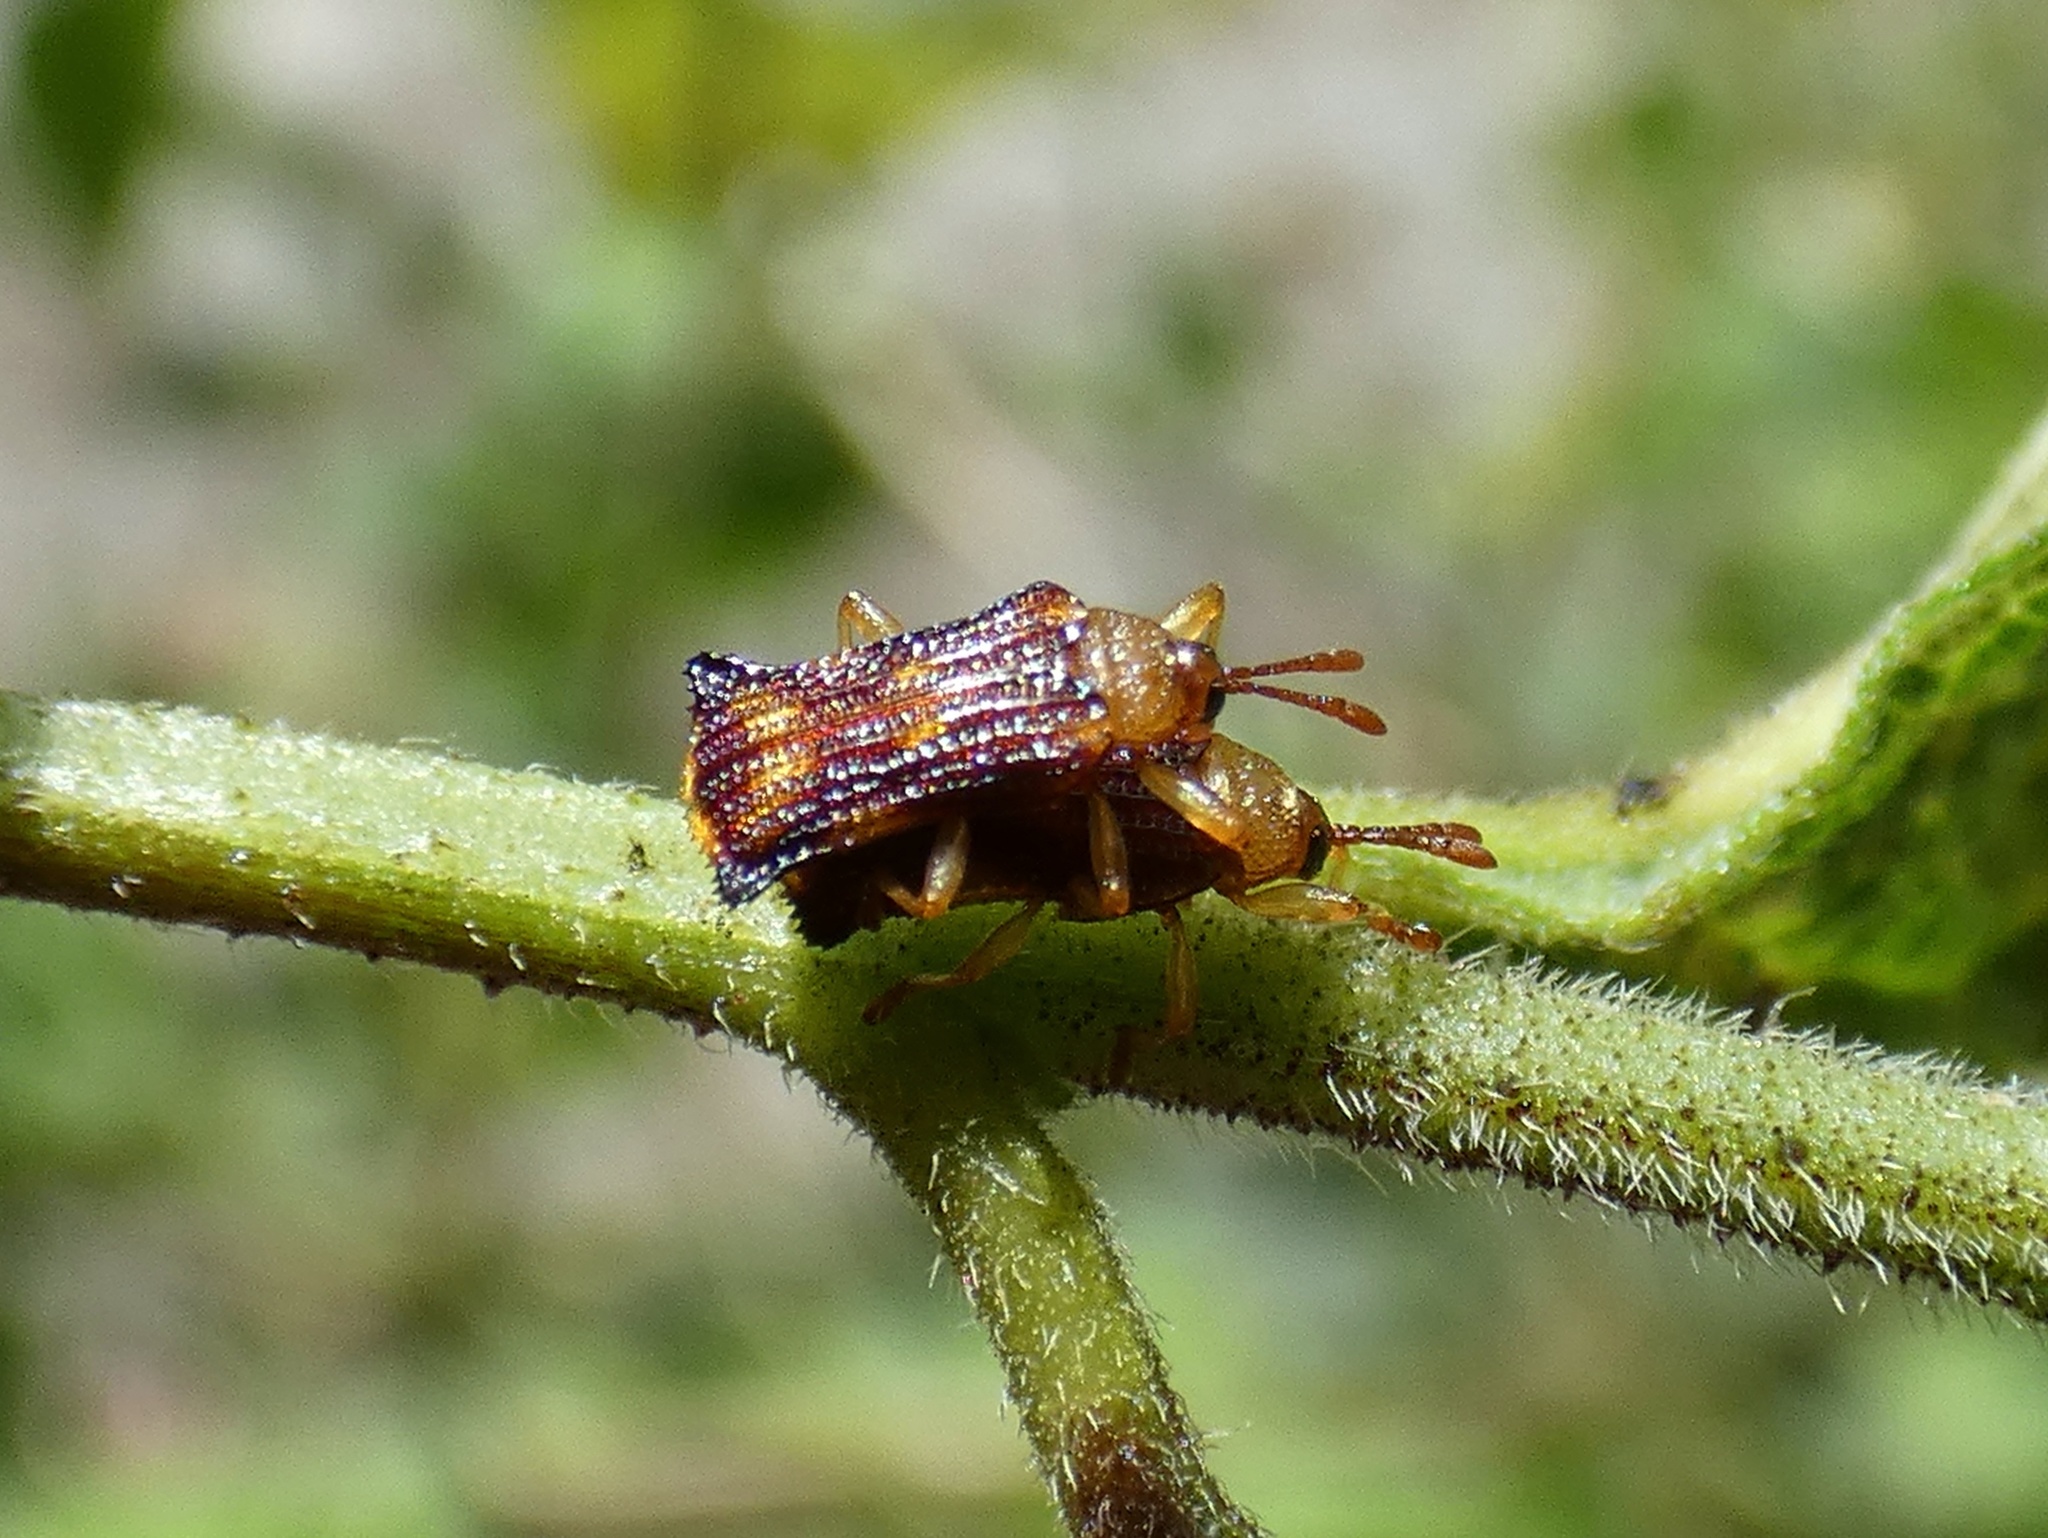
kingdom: Animalia
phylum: Arthropoda
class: Insecta
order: Coleoptera
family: Chrysomelidae
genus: Uroplata
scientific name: Uroplata fulvopustulata
